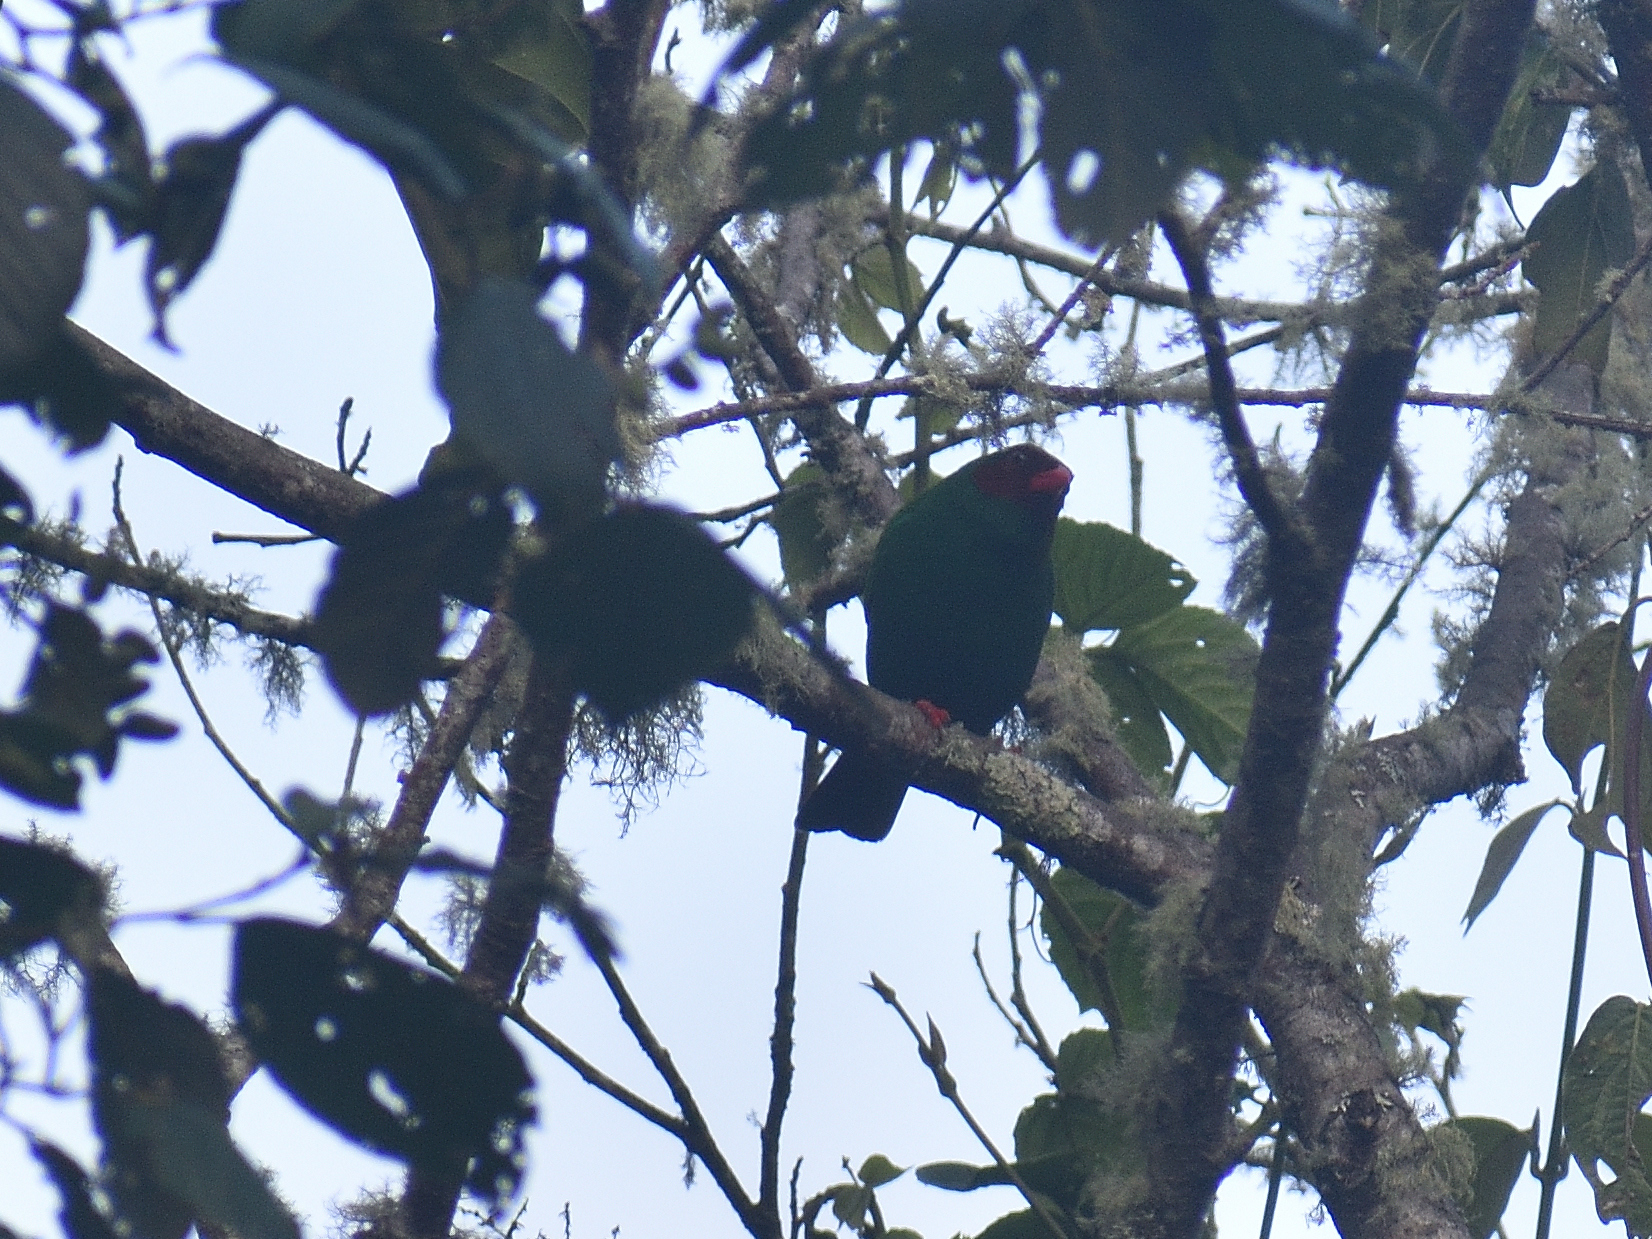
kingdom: Animalia
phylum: Chordata
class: Aves
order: Passeriformes
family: Thraupidae
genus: Chlorornis
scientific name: Chlorornis riefferii
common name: Grass-green tanager
